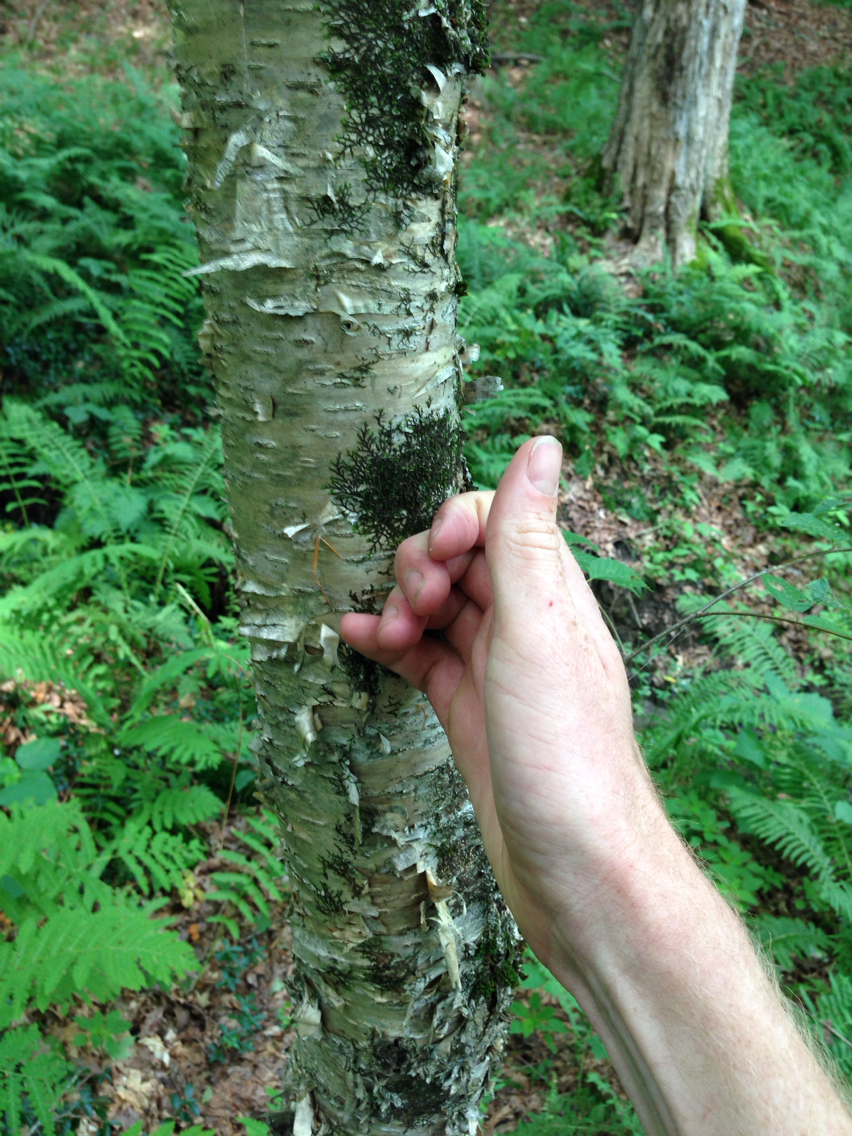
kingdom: Plantae
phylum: Tracheophyta
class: Magnoliopsida
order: Fagales
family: Betulaceae
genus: Betula
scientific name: Betula alleghaniensis
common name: Yellow birch
